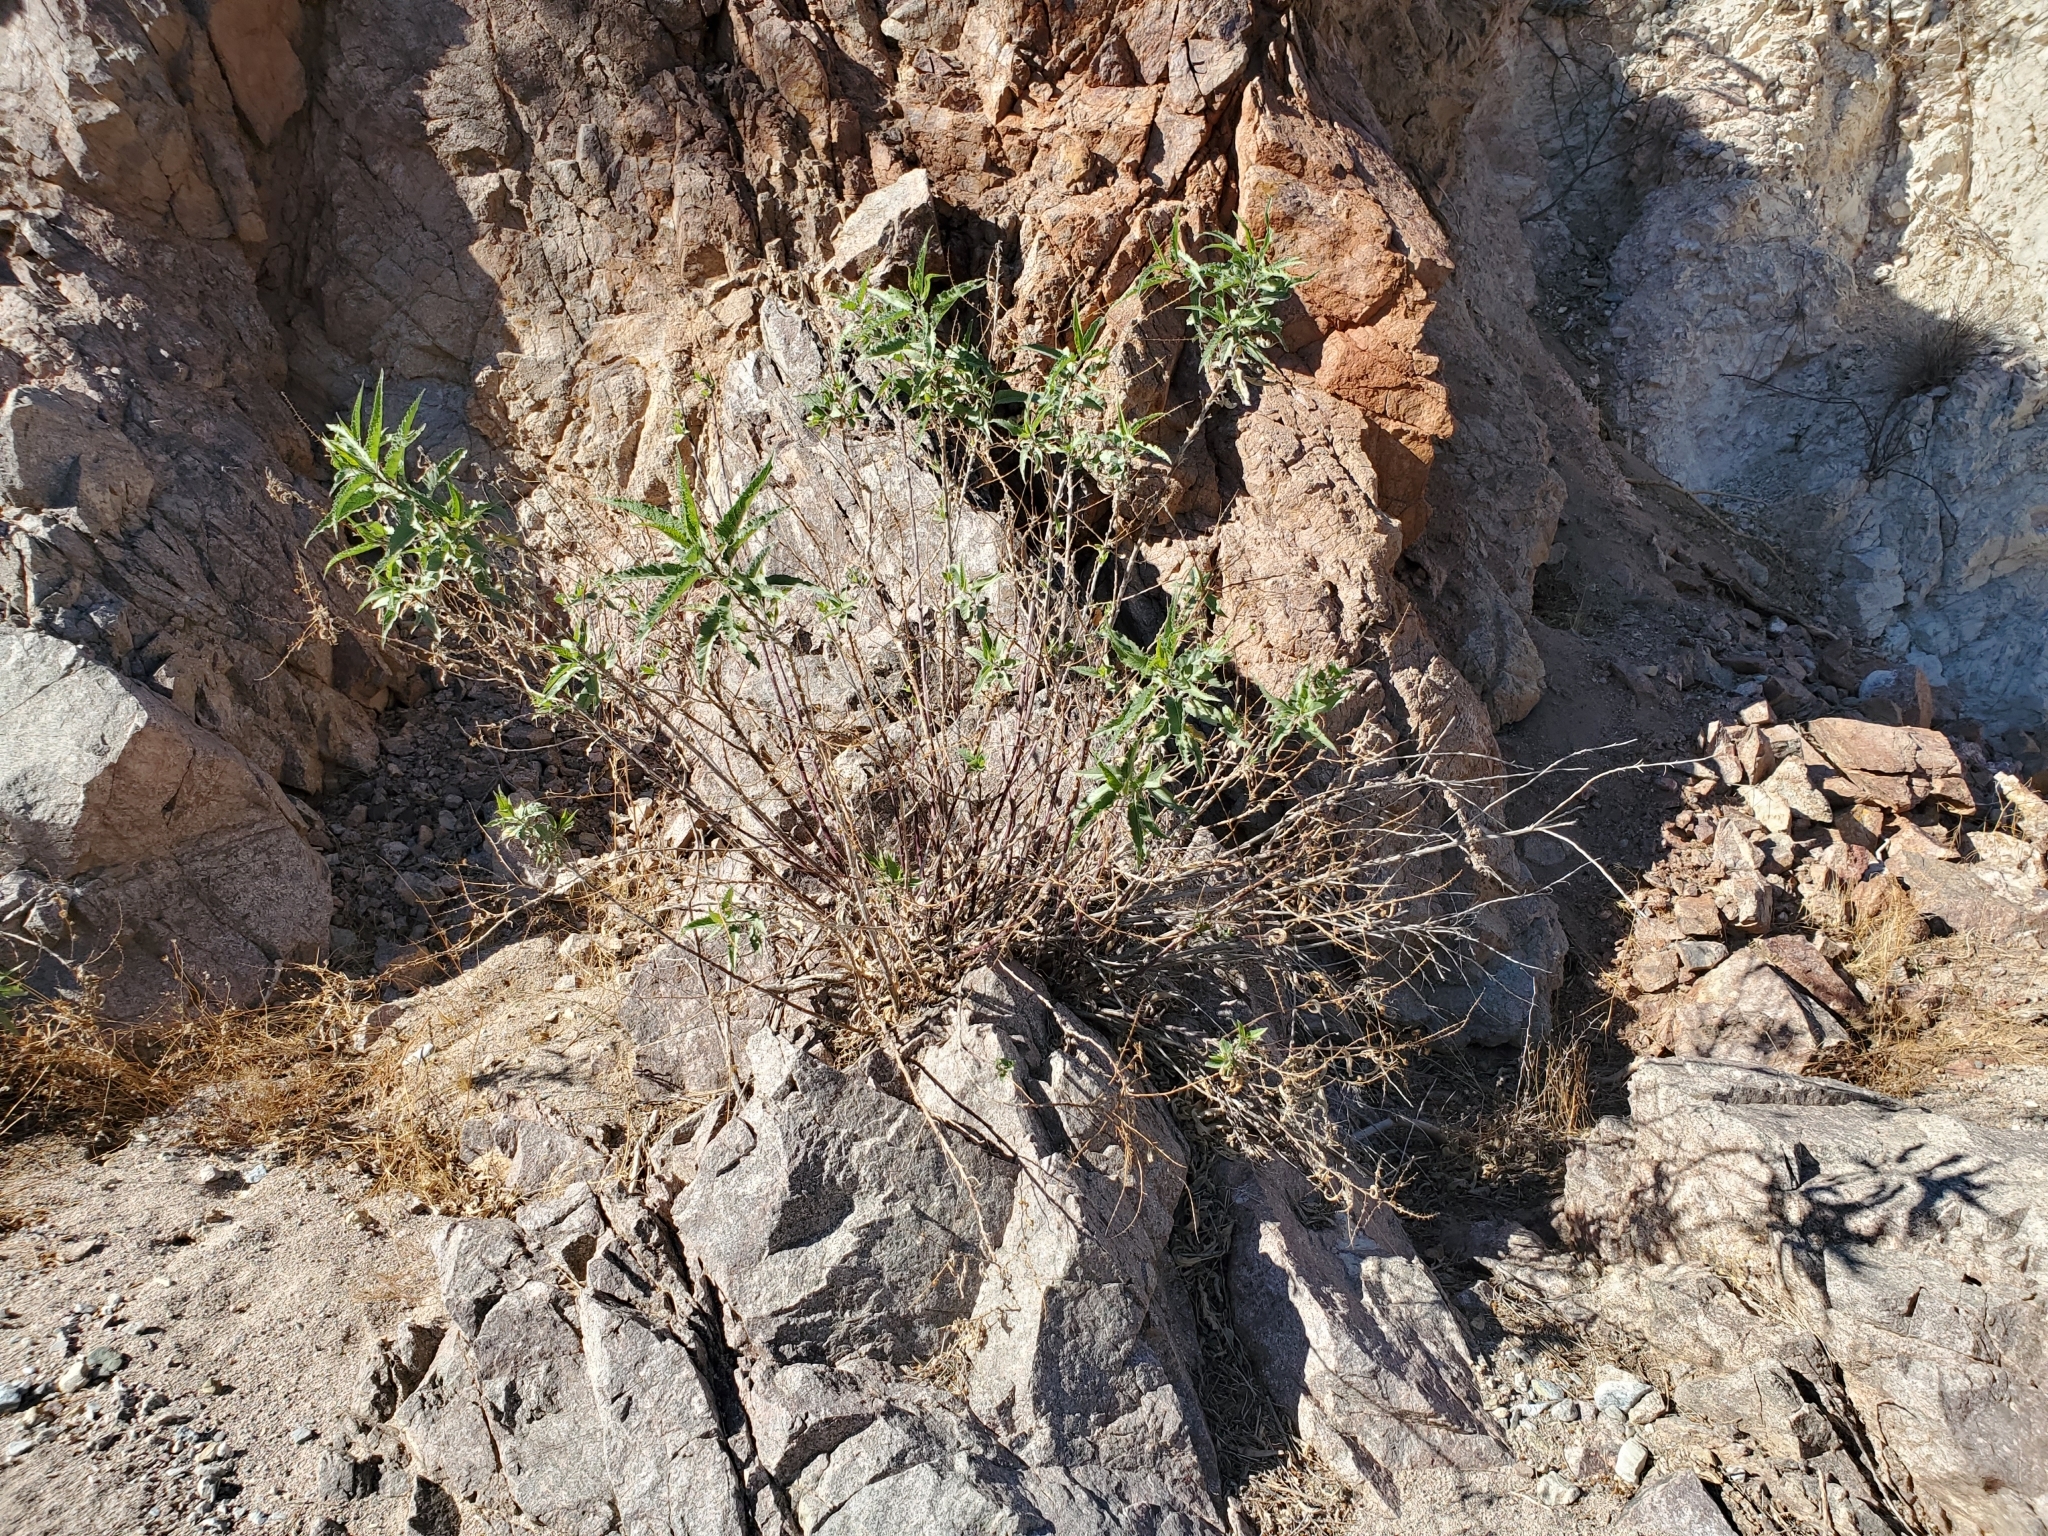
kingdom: Plantae
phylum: Tracheophyta
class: Magnoliopsida
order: Asterales
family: Asteraceae
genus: Ambrosia
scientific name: Ambrosia ambrosioides
